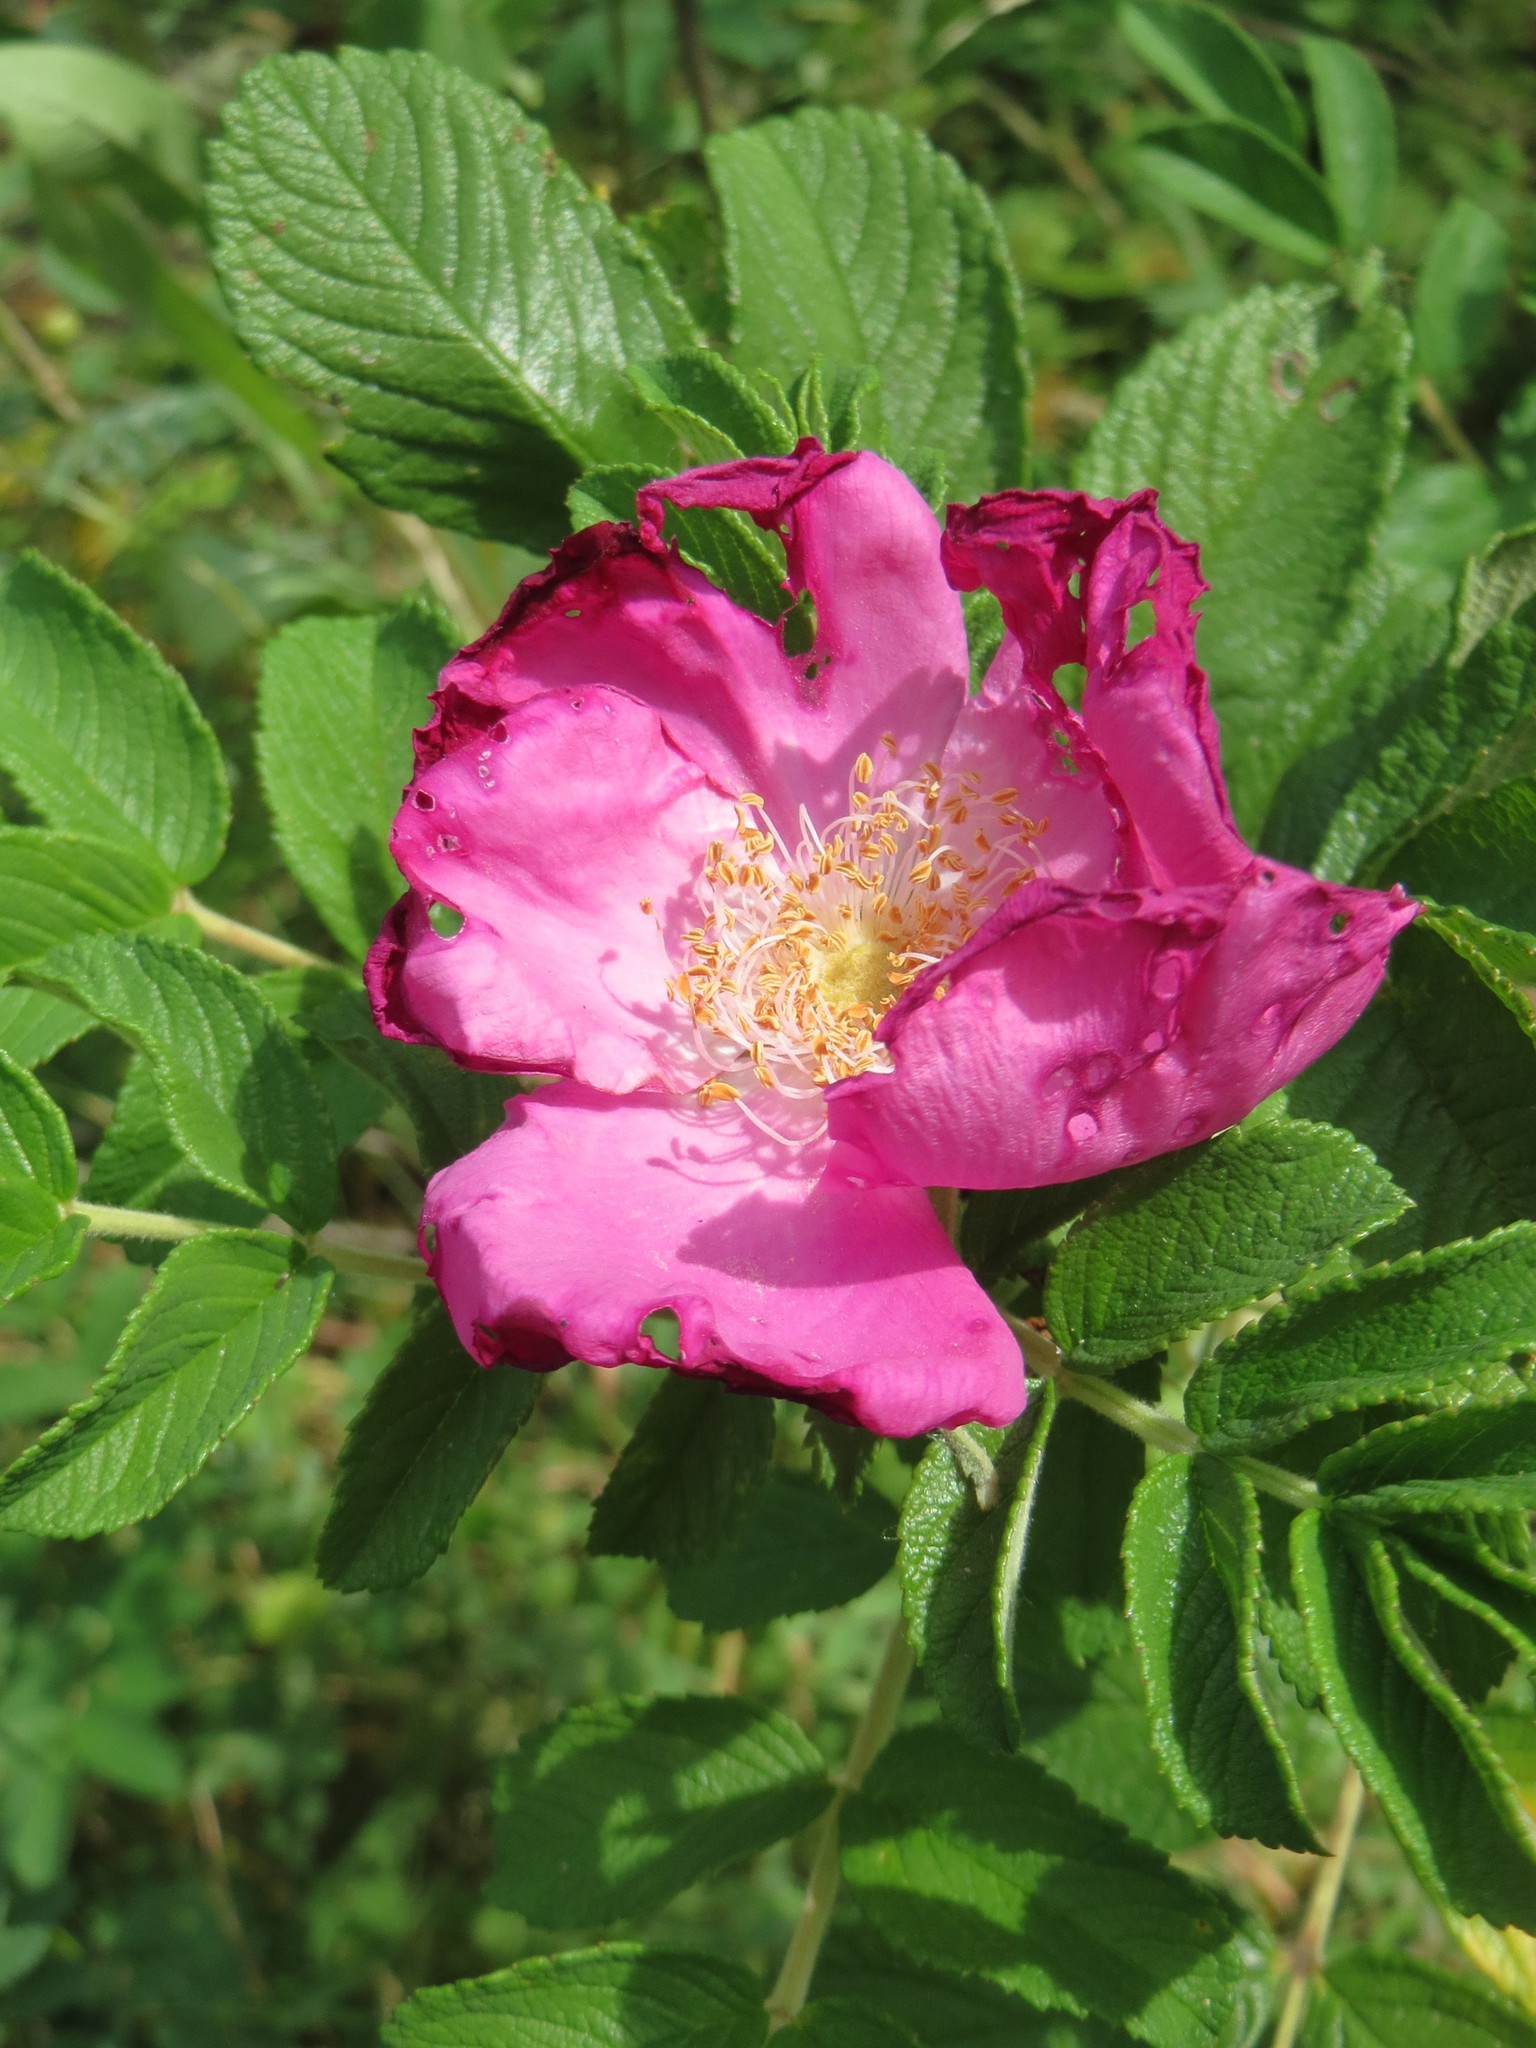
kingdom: Plantae
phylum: Tracheophyta
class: Magnoliopsida
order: Rosales
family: Rosaceae
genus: Rosa
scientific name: Rosa rugosa
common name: Japanese rose
